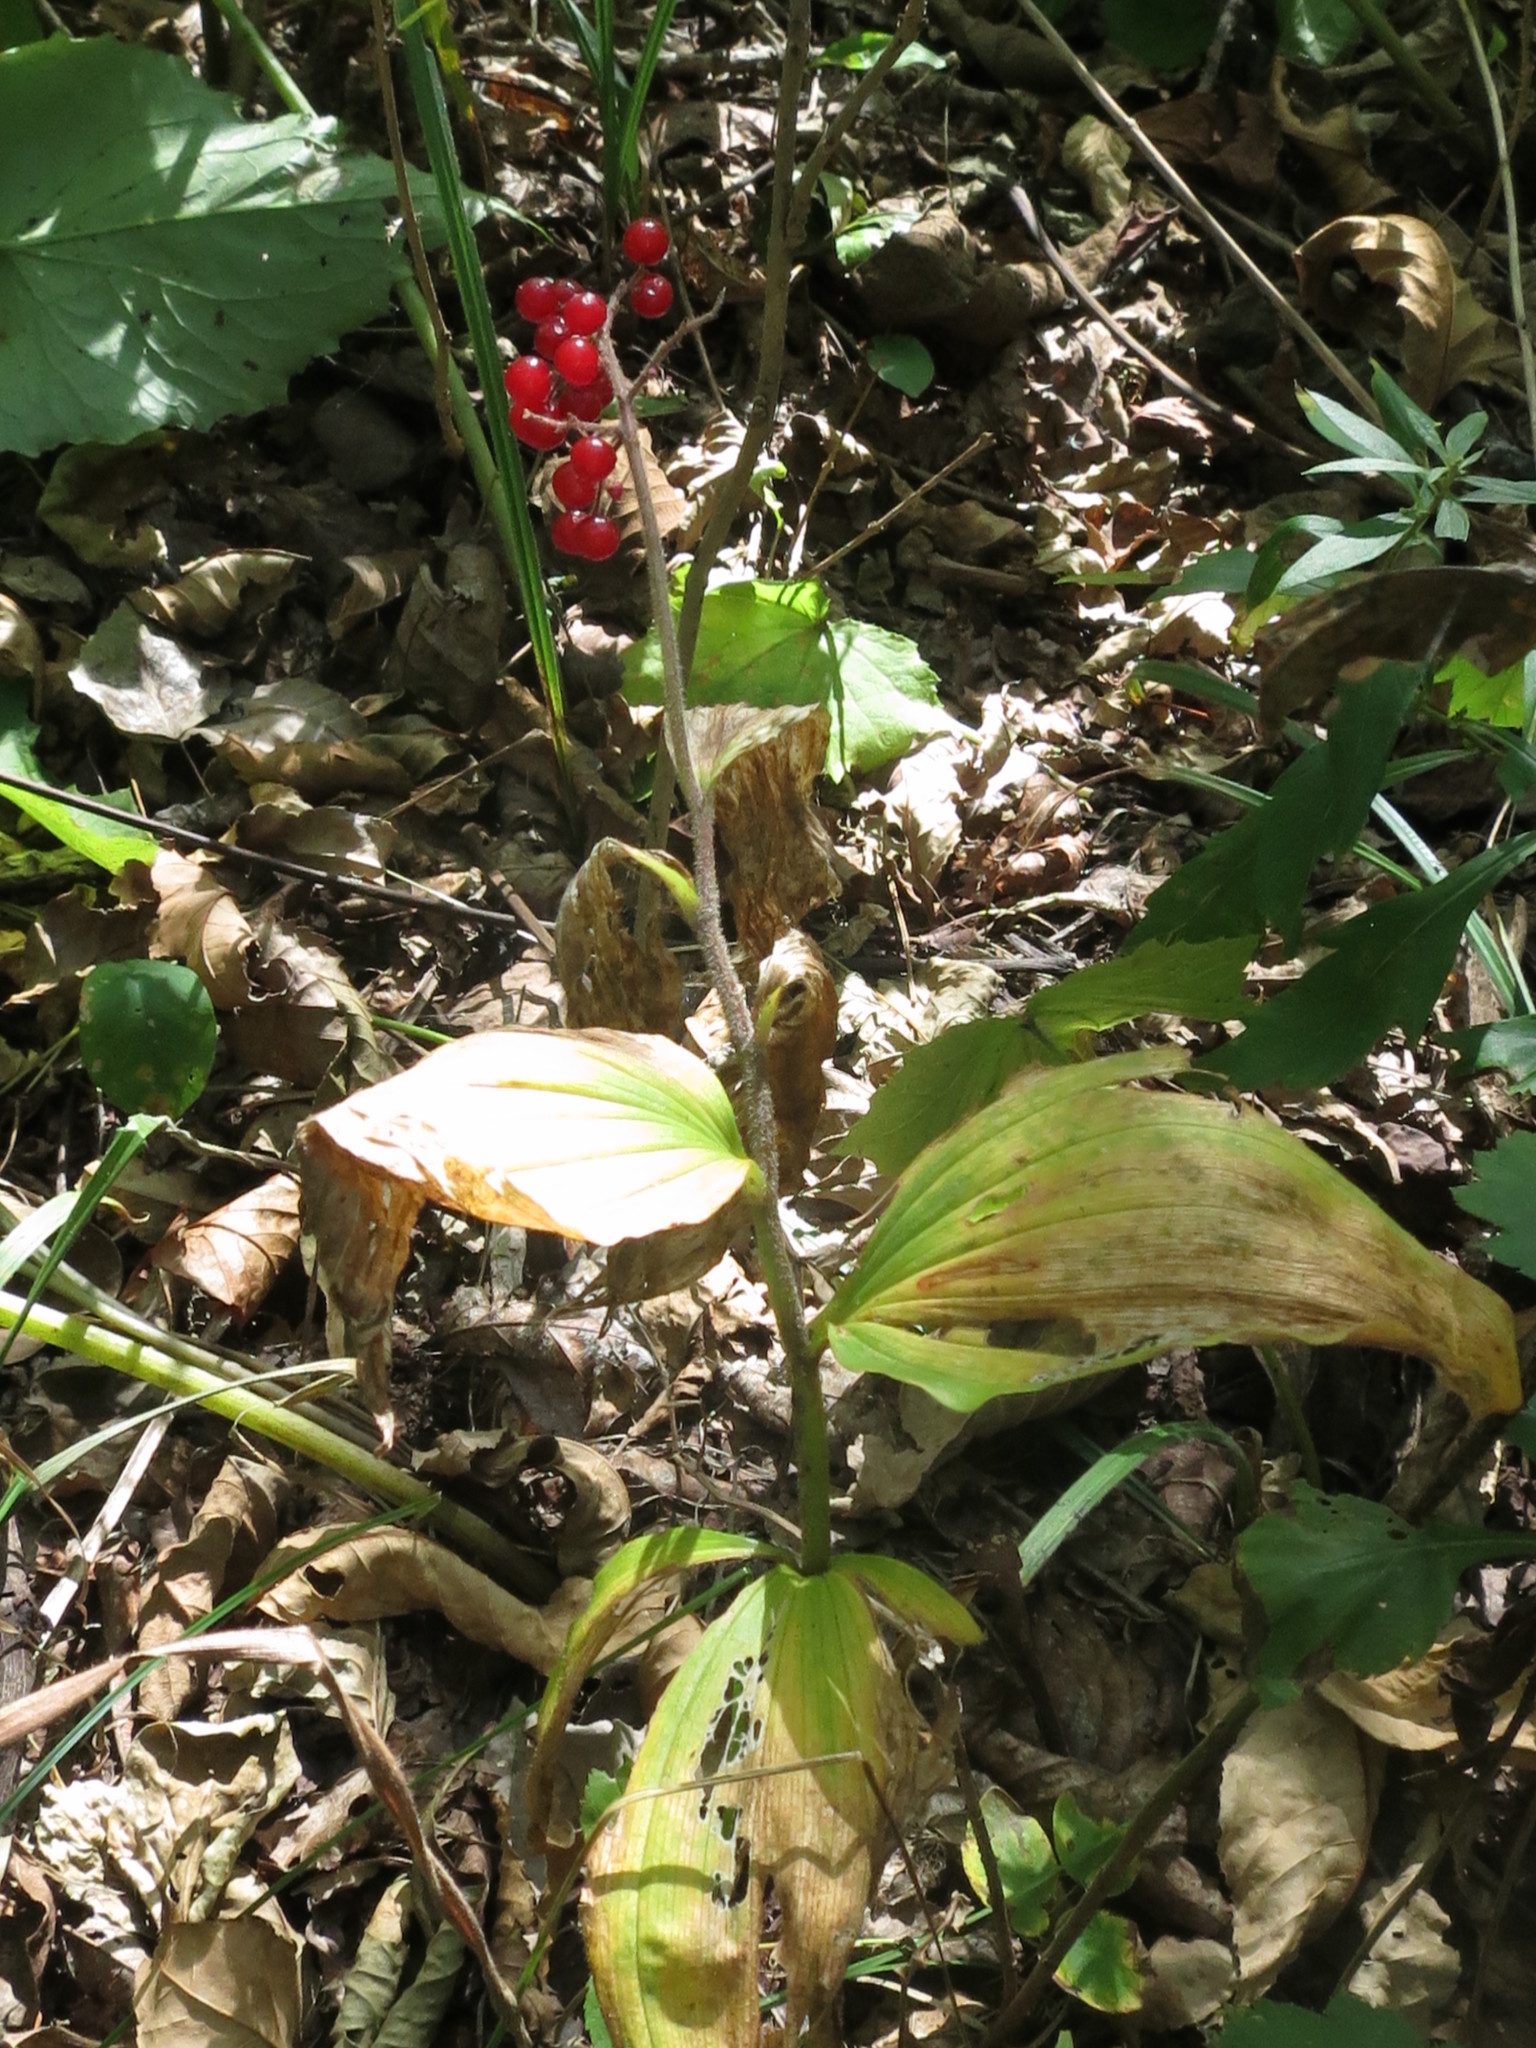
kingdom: Plantae
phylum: Tracheophyta
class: Liliopsida
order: Asparagales
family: Asparagaceae
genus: Maianthemum
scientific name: Maianthemum japonicum
